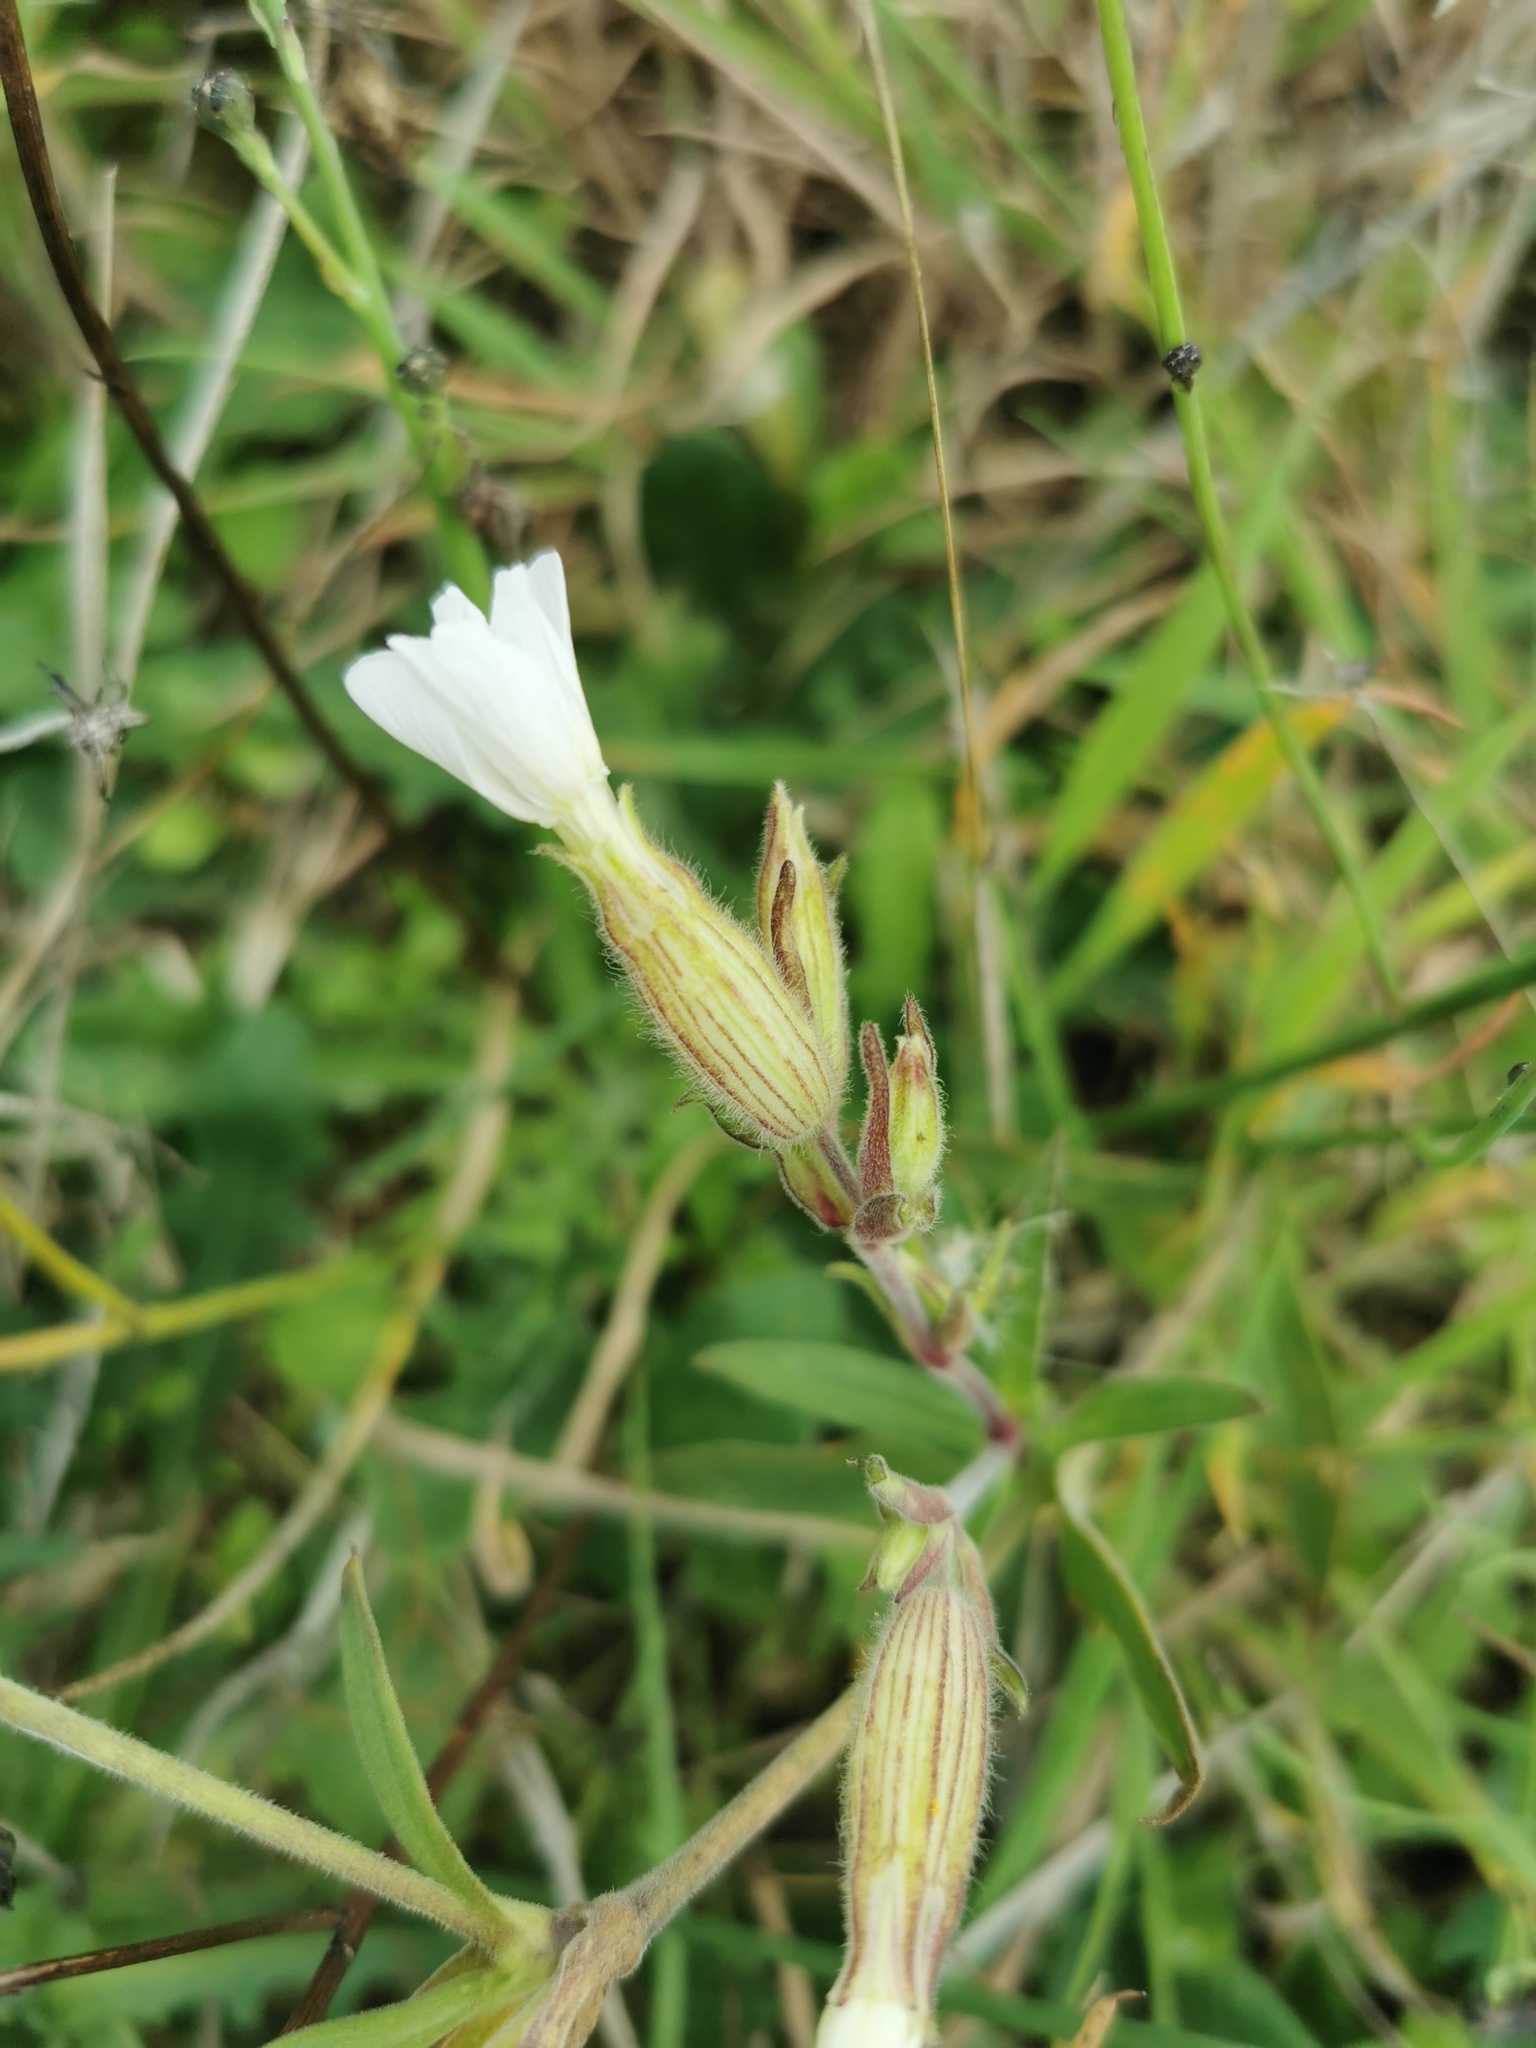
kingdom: Plantae
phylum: Tracheophyta
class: Magnoliopsida
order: Caryophyllales
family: Caryophyllaceae
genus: Silene
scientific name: Silene latifolia
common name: White campion
